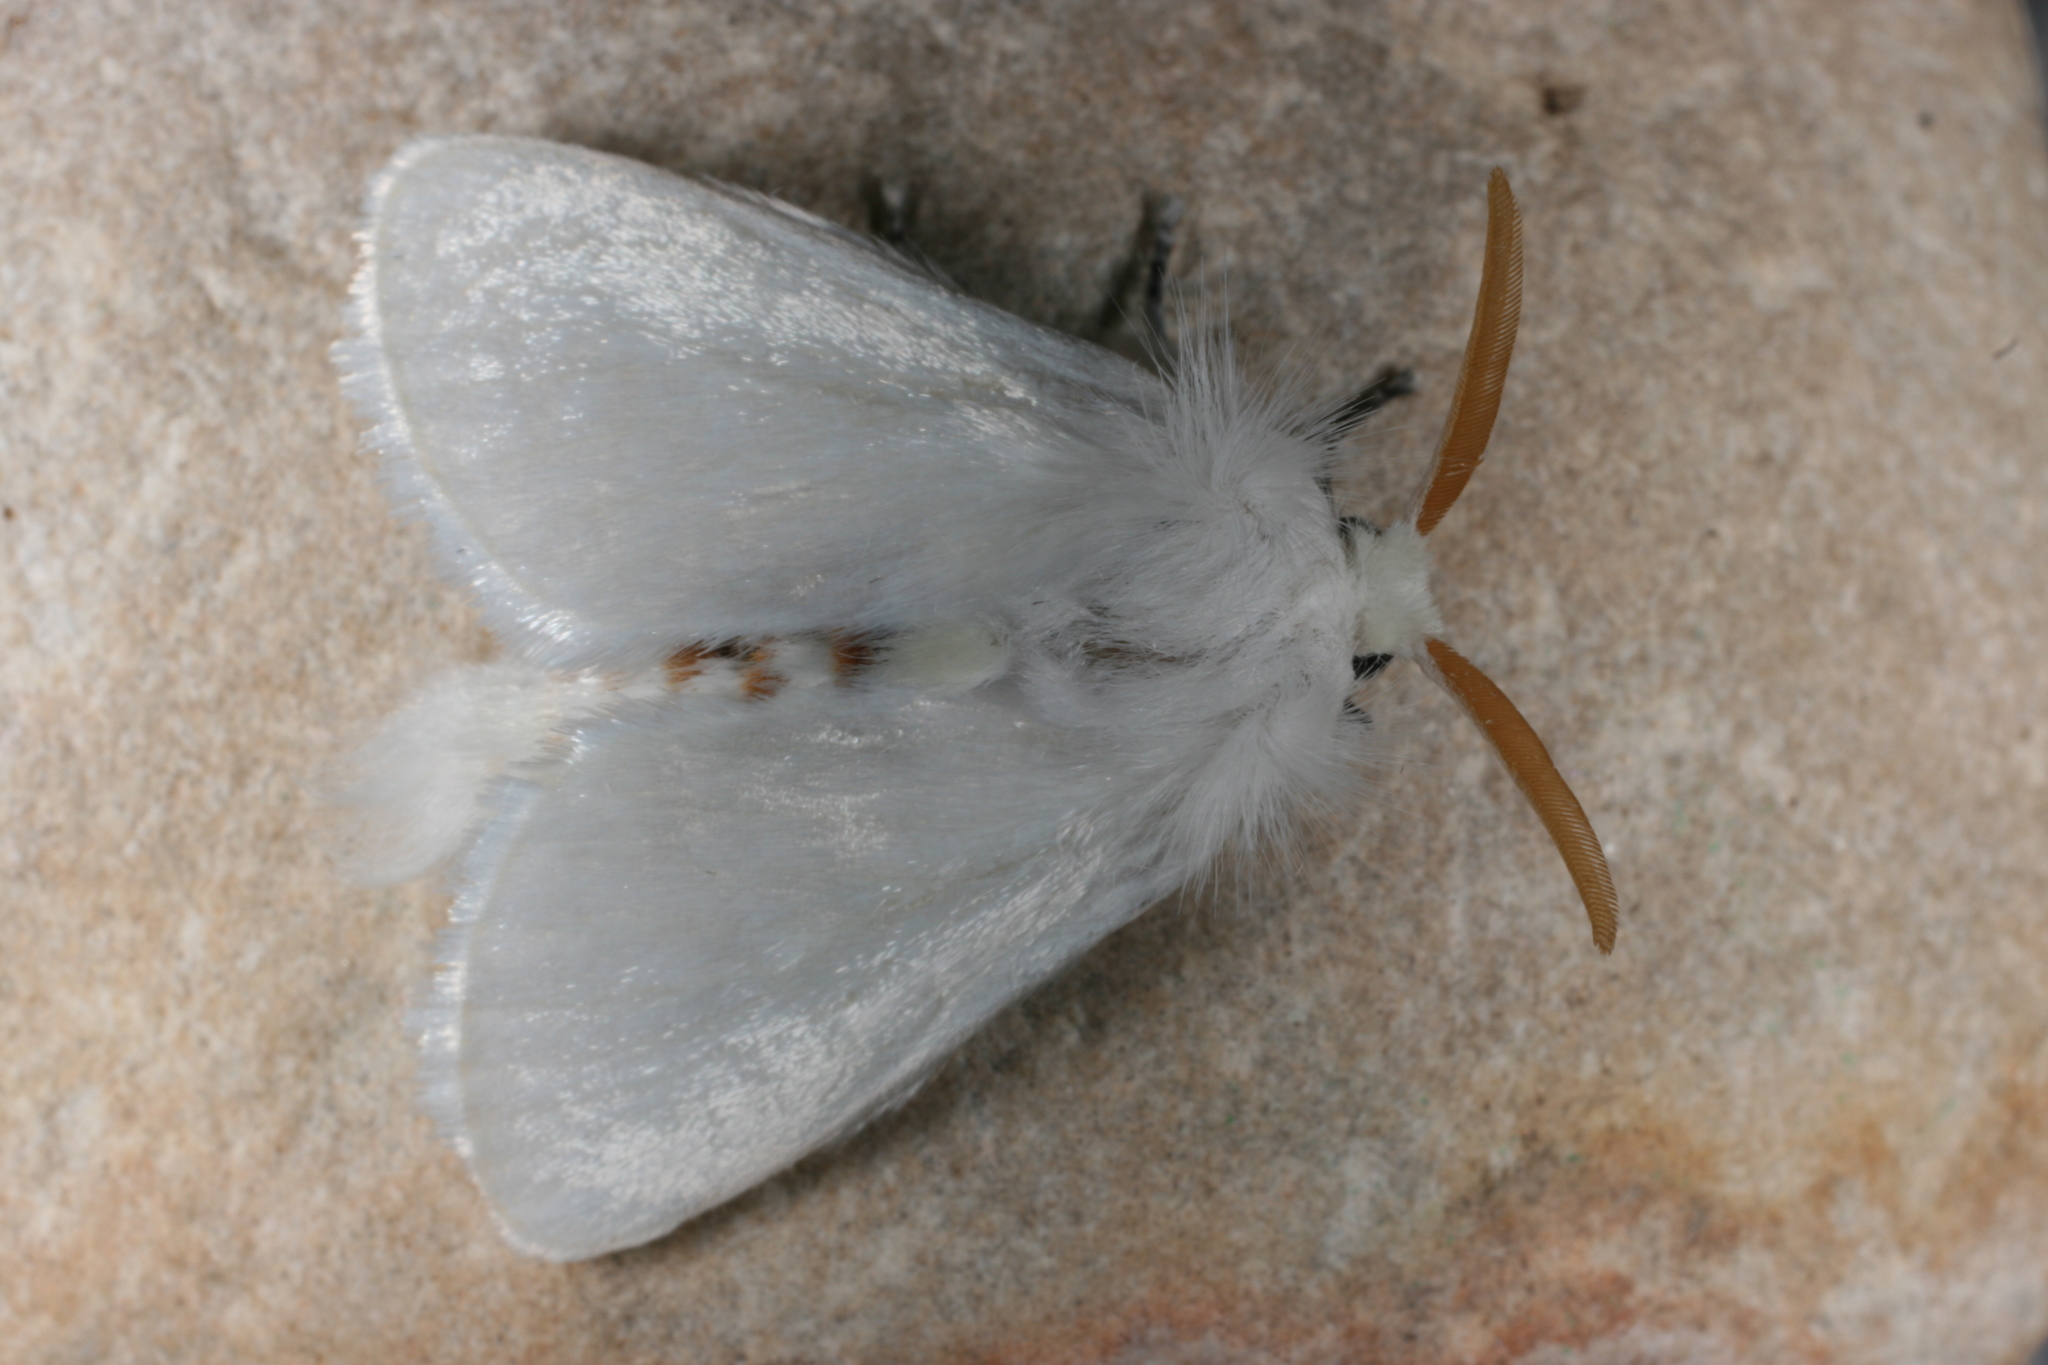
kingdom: Animalia
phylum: Arthropoda
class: Insecta
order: Lepidoptera
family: Megalopygidae
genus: Norape
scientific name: Norape sorpresa
